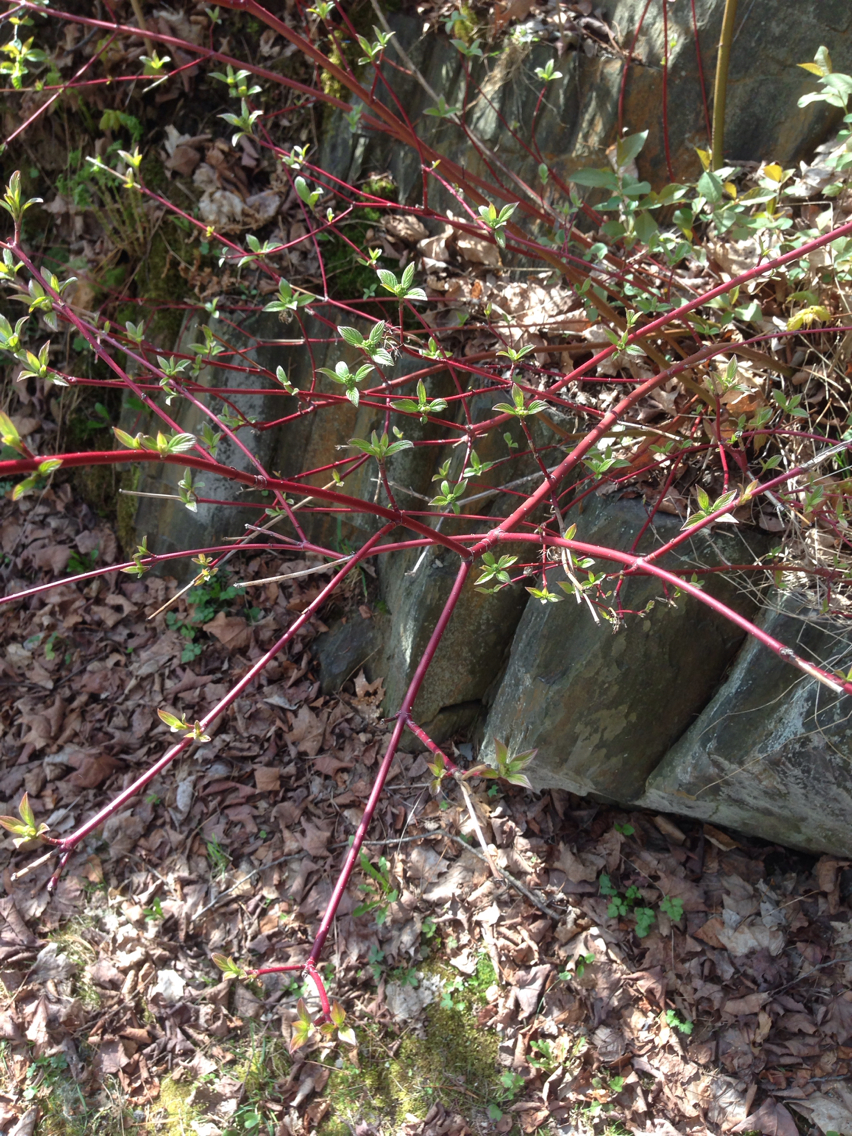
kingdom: Plantae
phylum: Tracheophyta
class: Magnoliopsida
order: Cornales
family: Cornaceae
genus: Cornus
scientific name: Cornus sericea
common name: Red-osier dogwood
